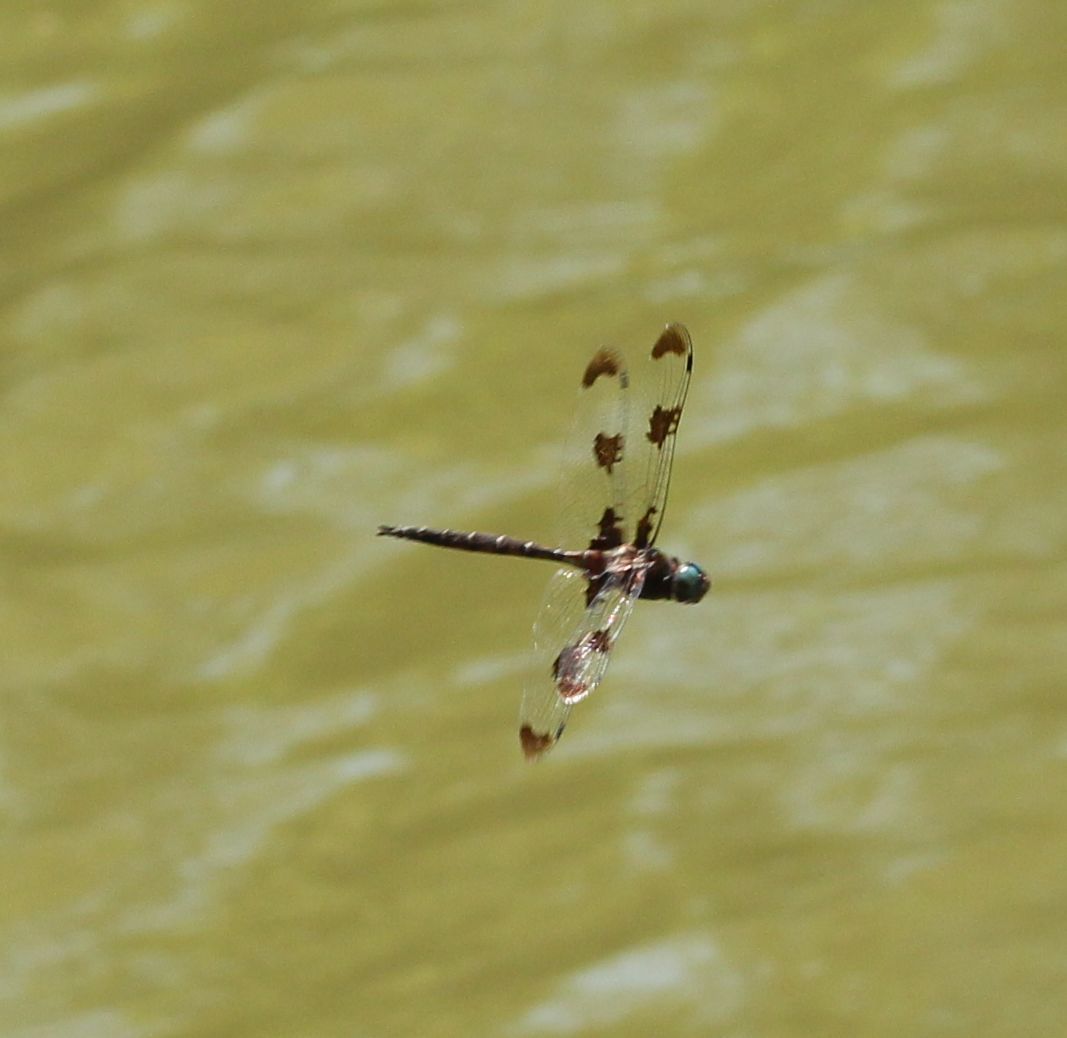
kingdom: Animalia
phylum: Arthropoda
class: Insecta
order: Odonata
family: Corduliidae
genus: Epitheca
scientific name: Epitheca princeps
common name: Prince baskettail
